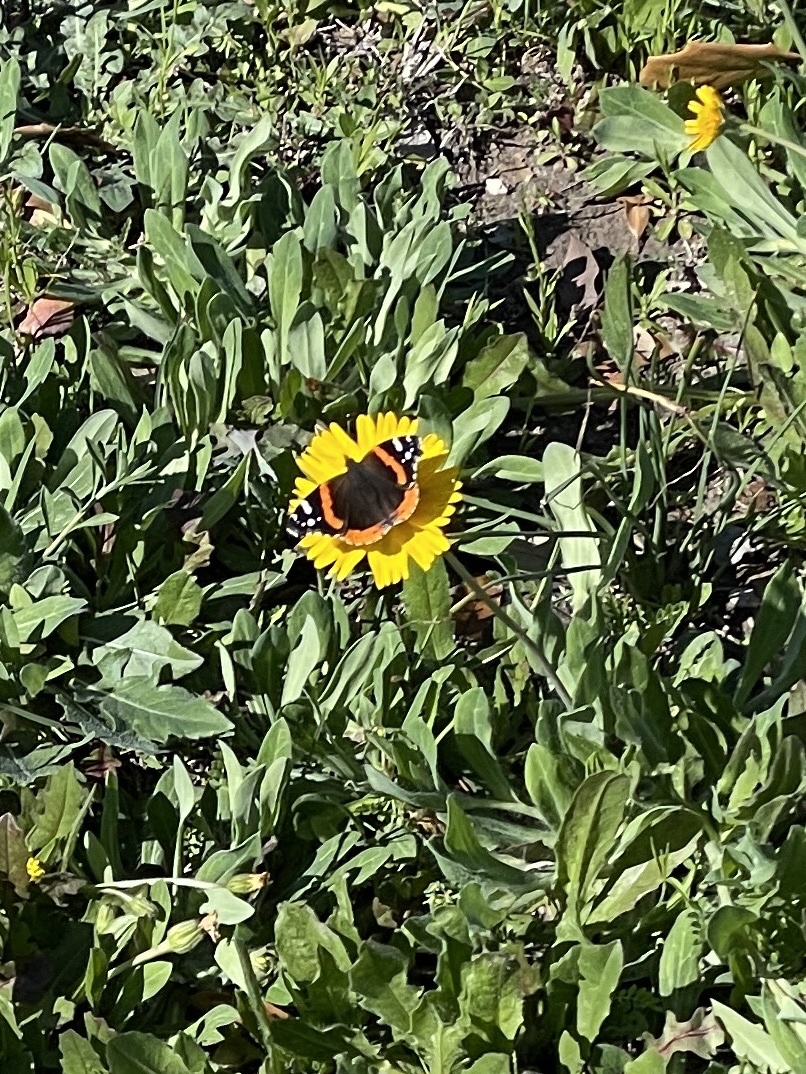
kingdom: Animalia
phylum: Arthropoda
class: Insecta
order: Lepidoptera
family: Nymphalidae
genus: Vanessa
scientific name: Vanessa atalanta
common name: Red admiral
